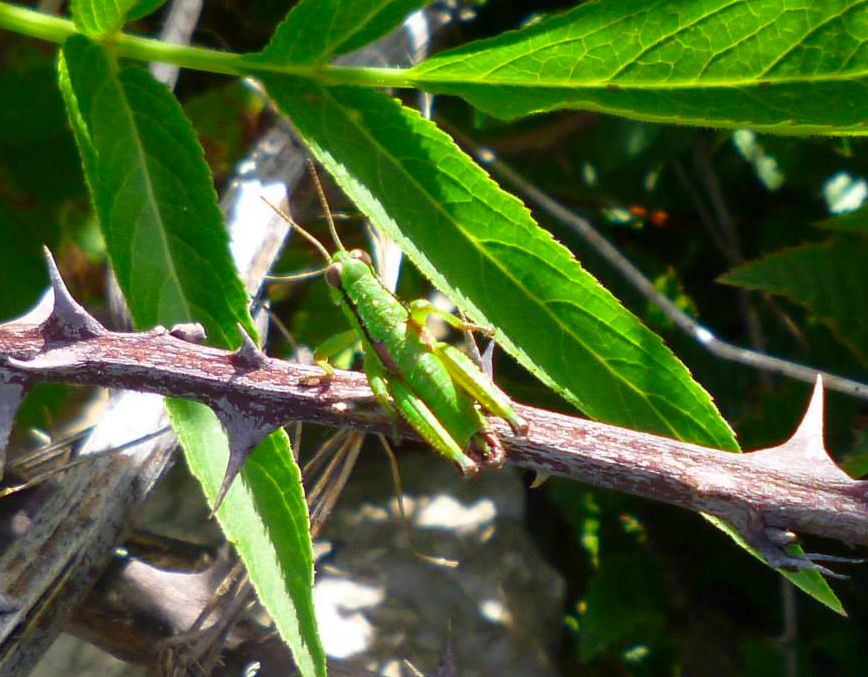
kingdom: Animalia
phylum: Arthropoda
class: Insecta
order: Orthoptera
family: Acrididae
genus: Odontopodisma
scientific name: Odontopodisma fallax
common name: Istrian mountain grasshopper
